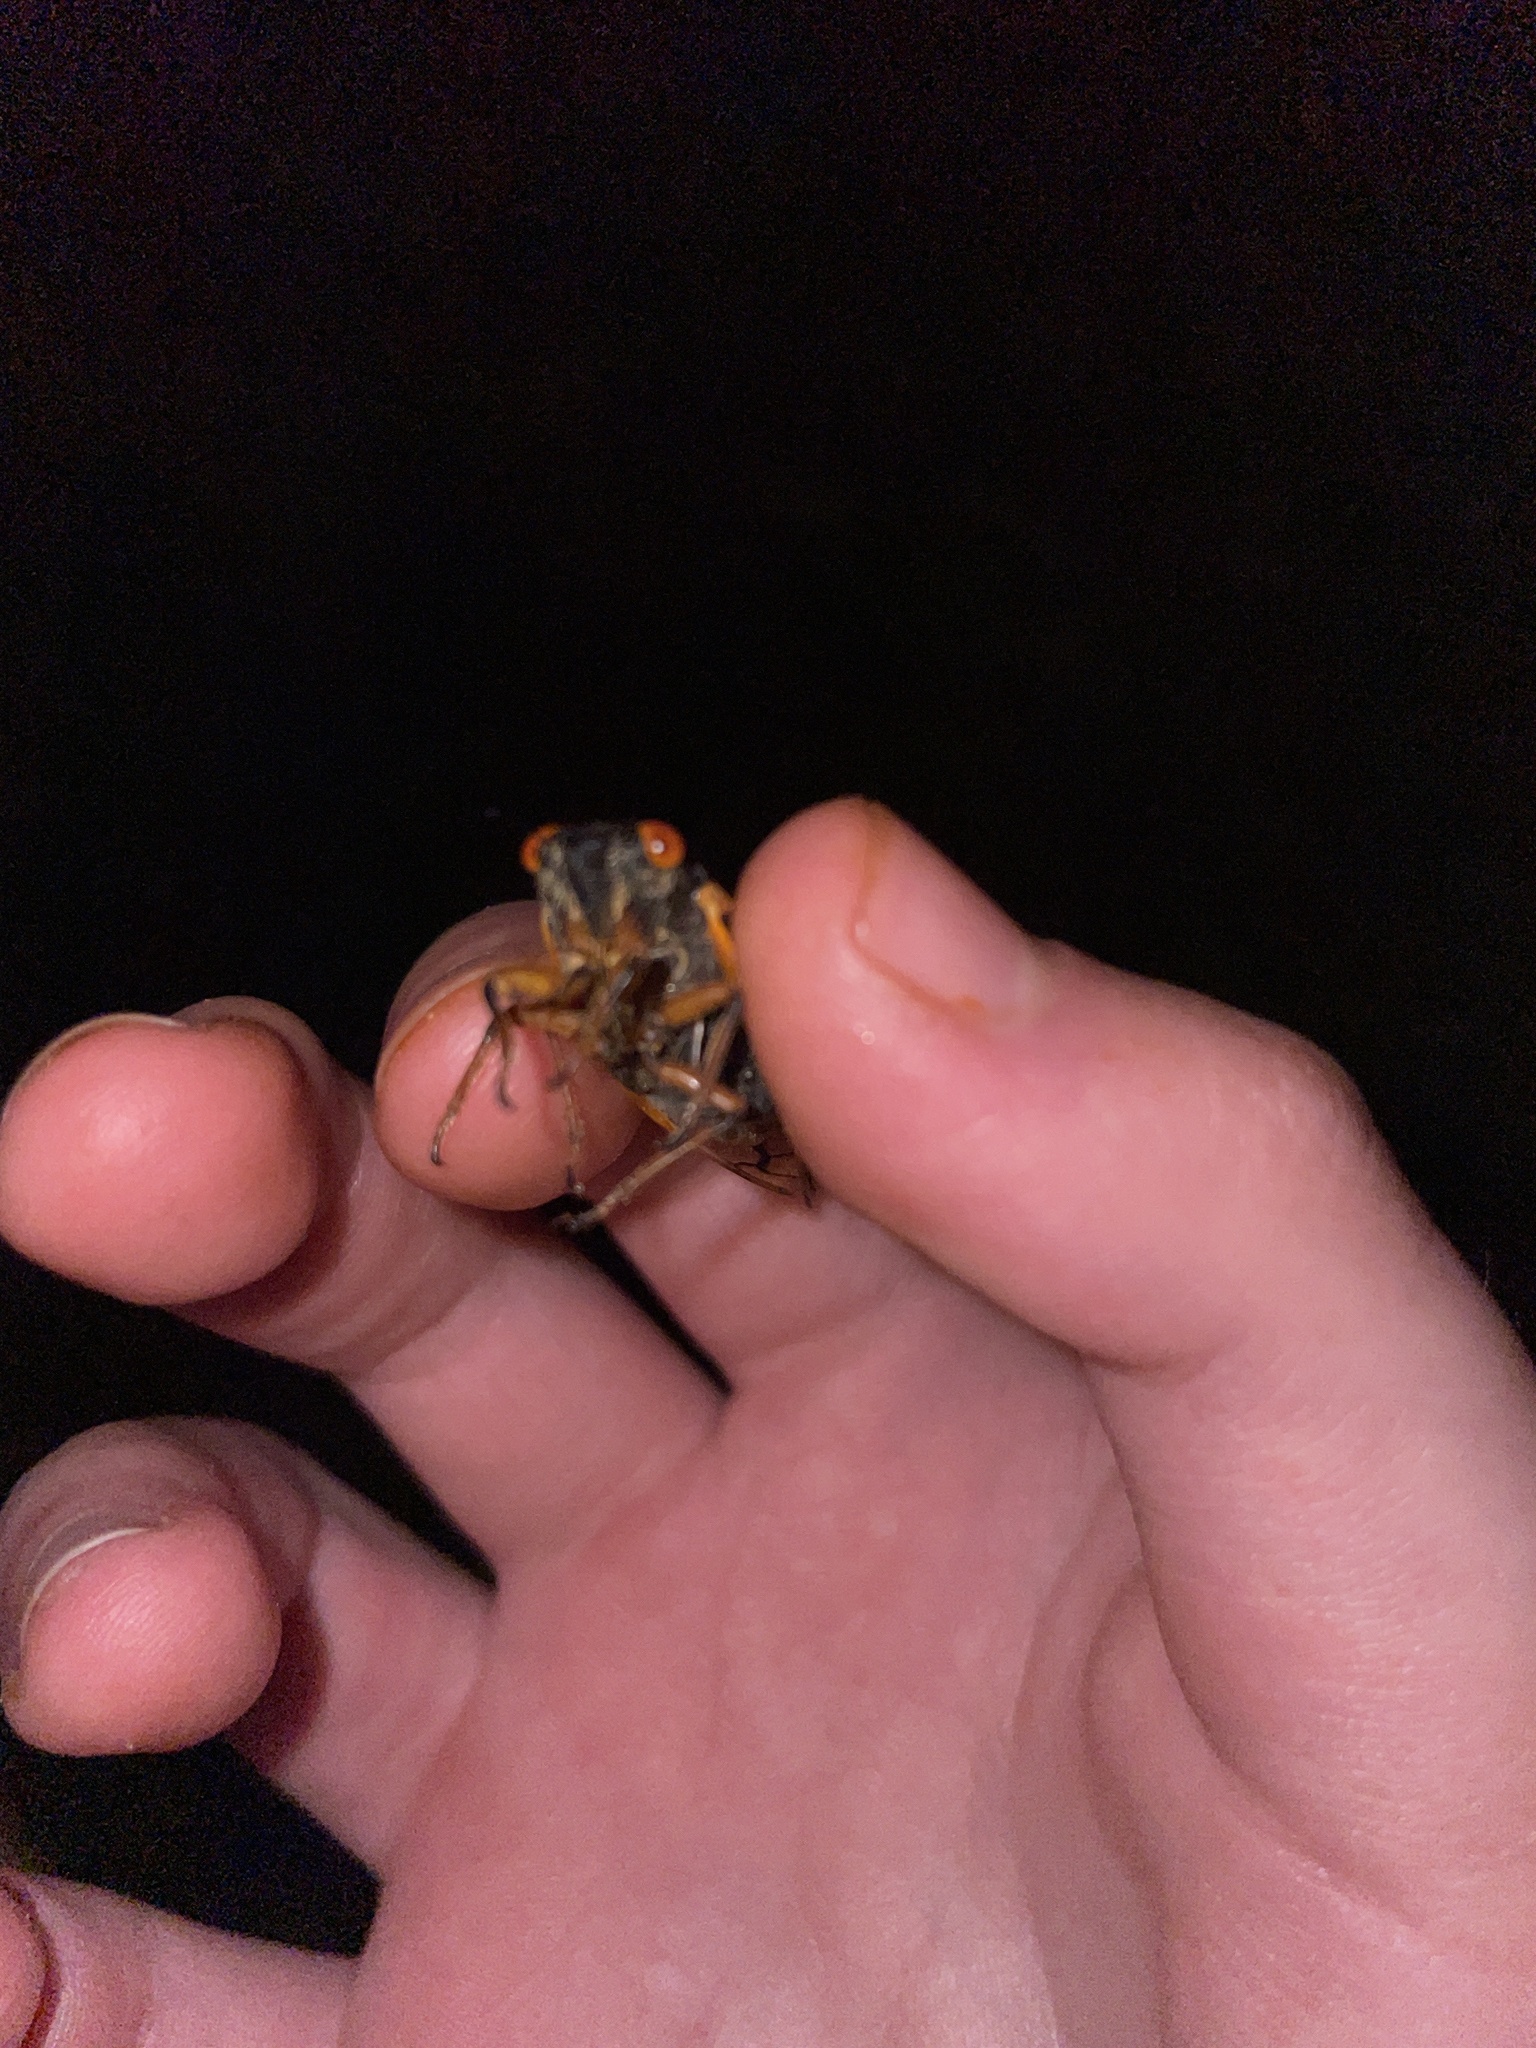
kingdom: Animalia
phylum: Arthropoda
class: Insecta
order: Hemiptera
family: Cicadidae
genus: Magicicada
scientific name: Magicicada
